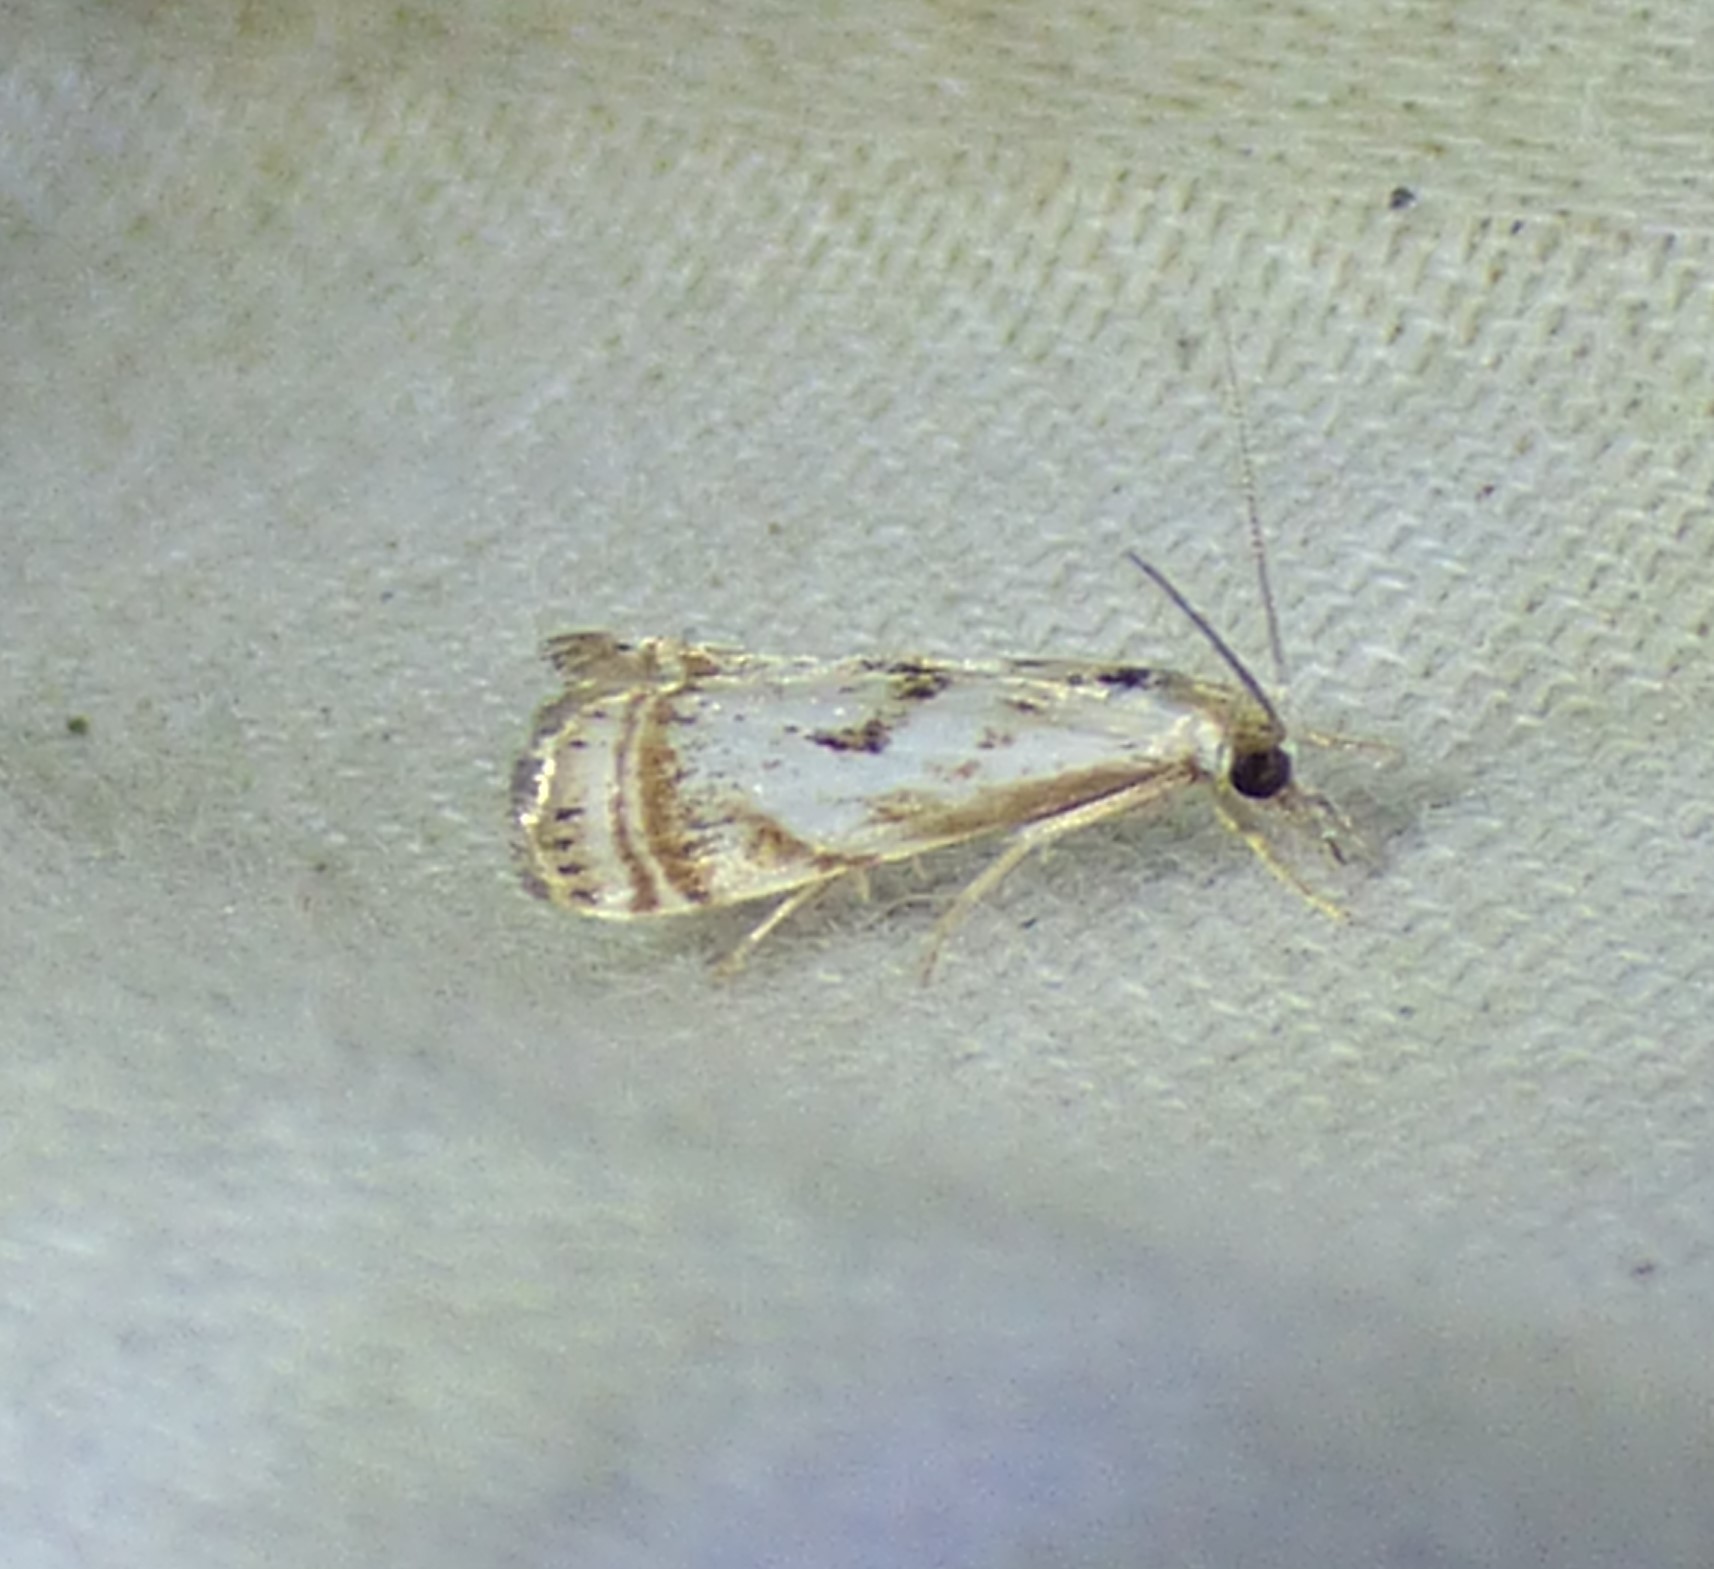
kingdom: Animalia
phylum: Arthropoda
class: Insecta
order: Lepidoptera
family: Crambidae
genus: Microcrambus
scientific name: Microcrambus elegans
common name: Elegant grass-veneer
